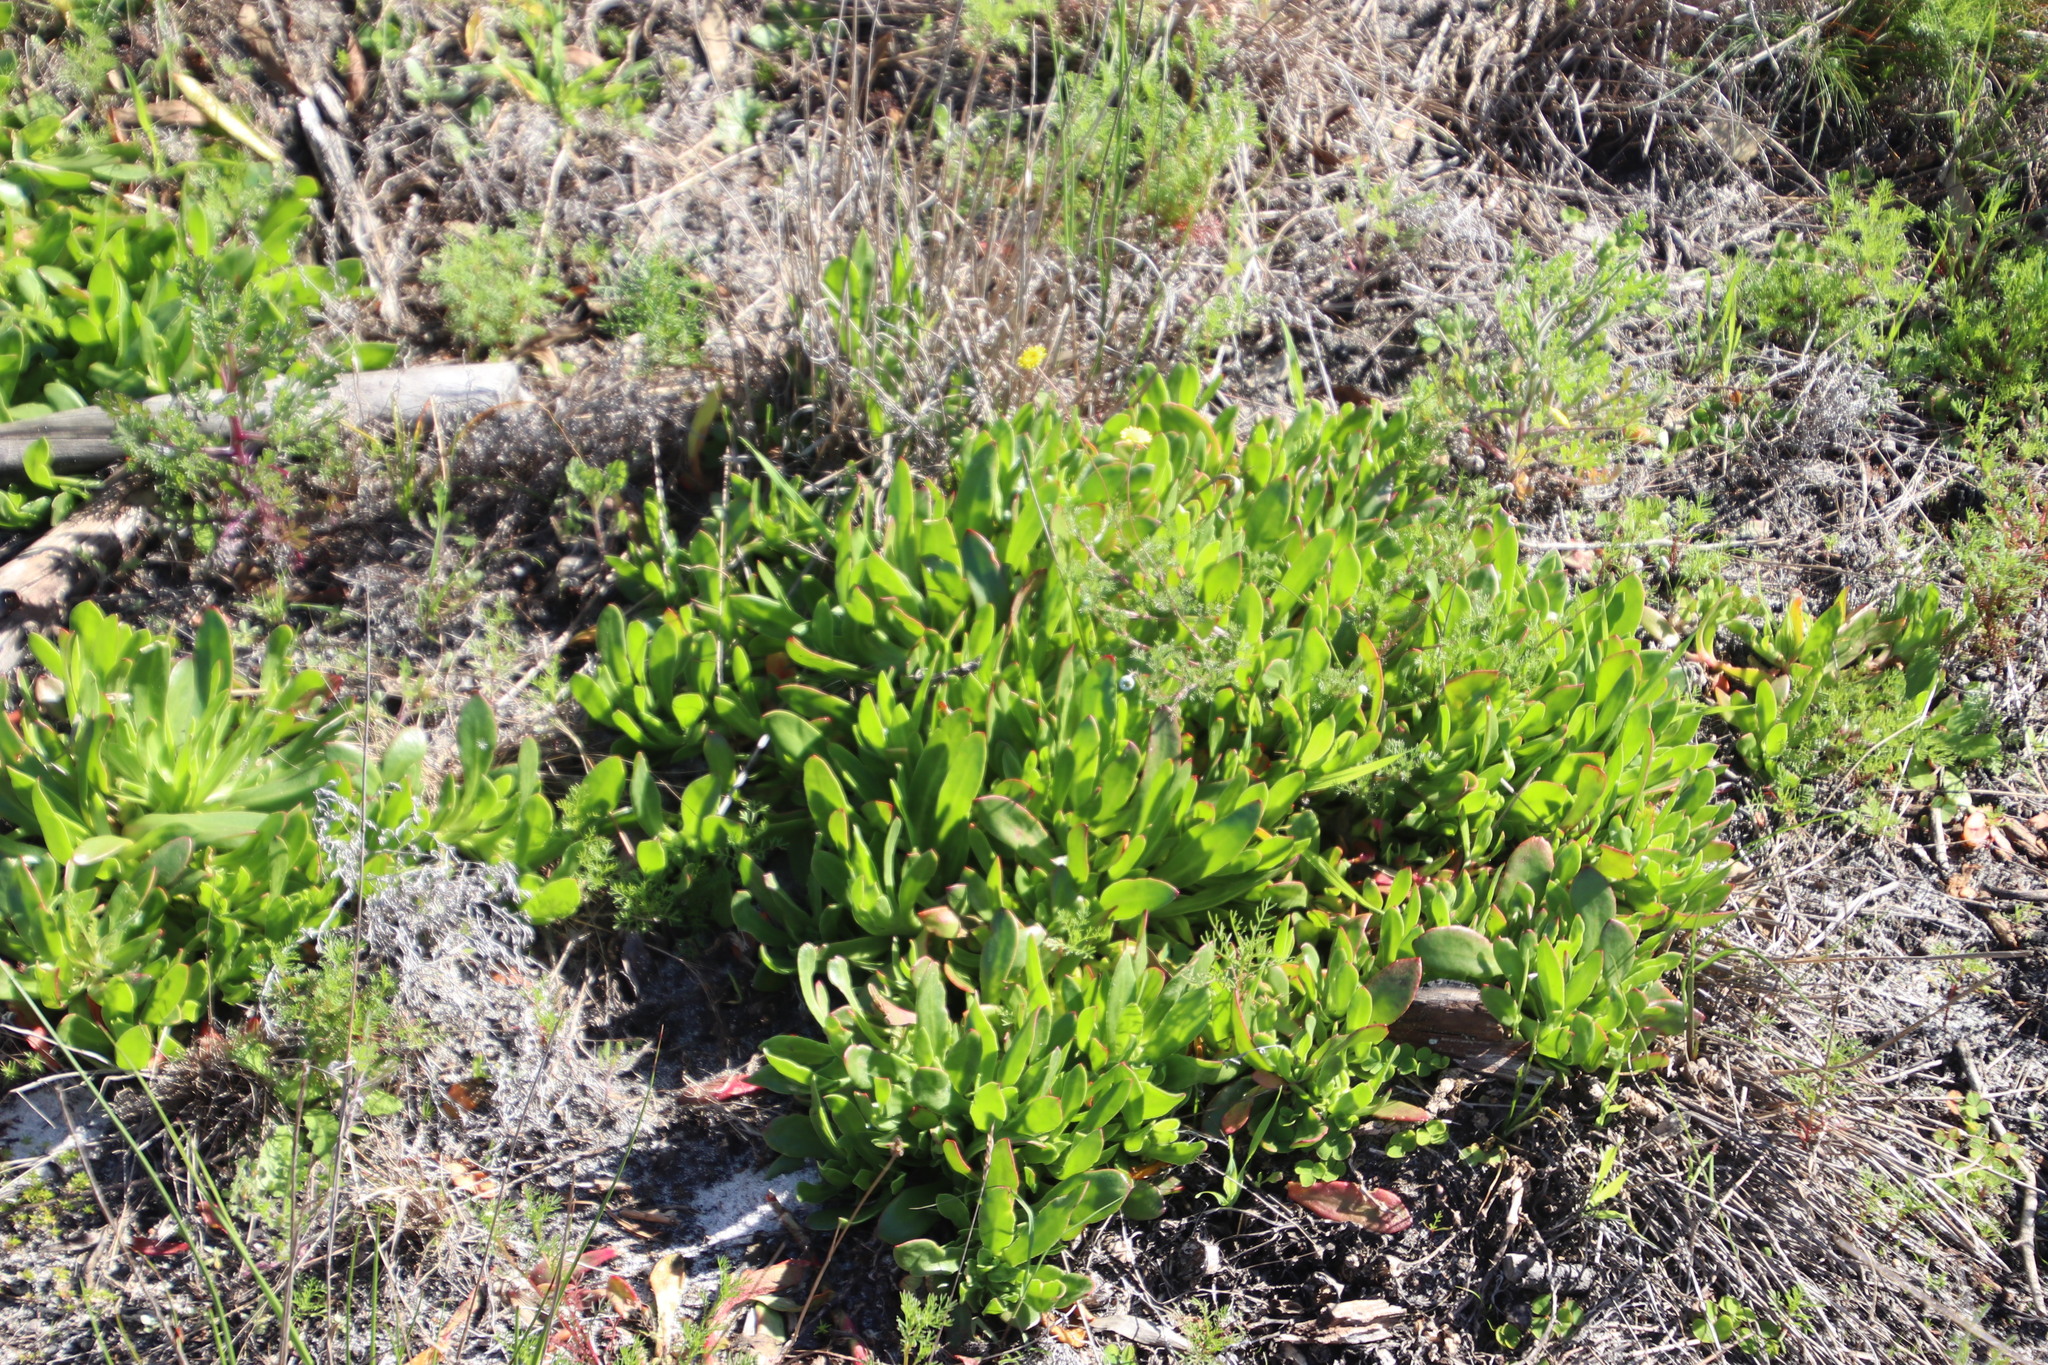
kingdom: Plantae
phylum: Tracheophyta
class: Magnoliopsida
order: Caryophyllales
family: Aizoaceae
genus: Skiatophytum
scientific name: Skiatophytum tripolium
